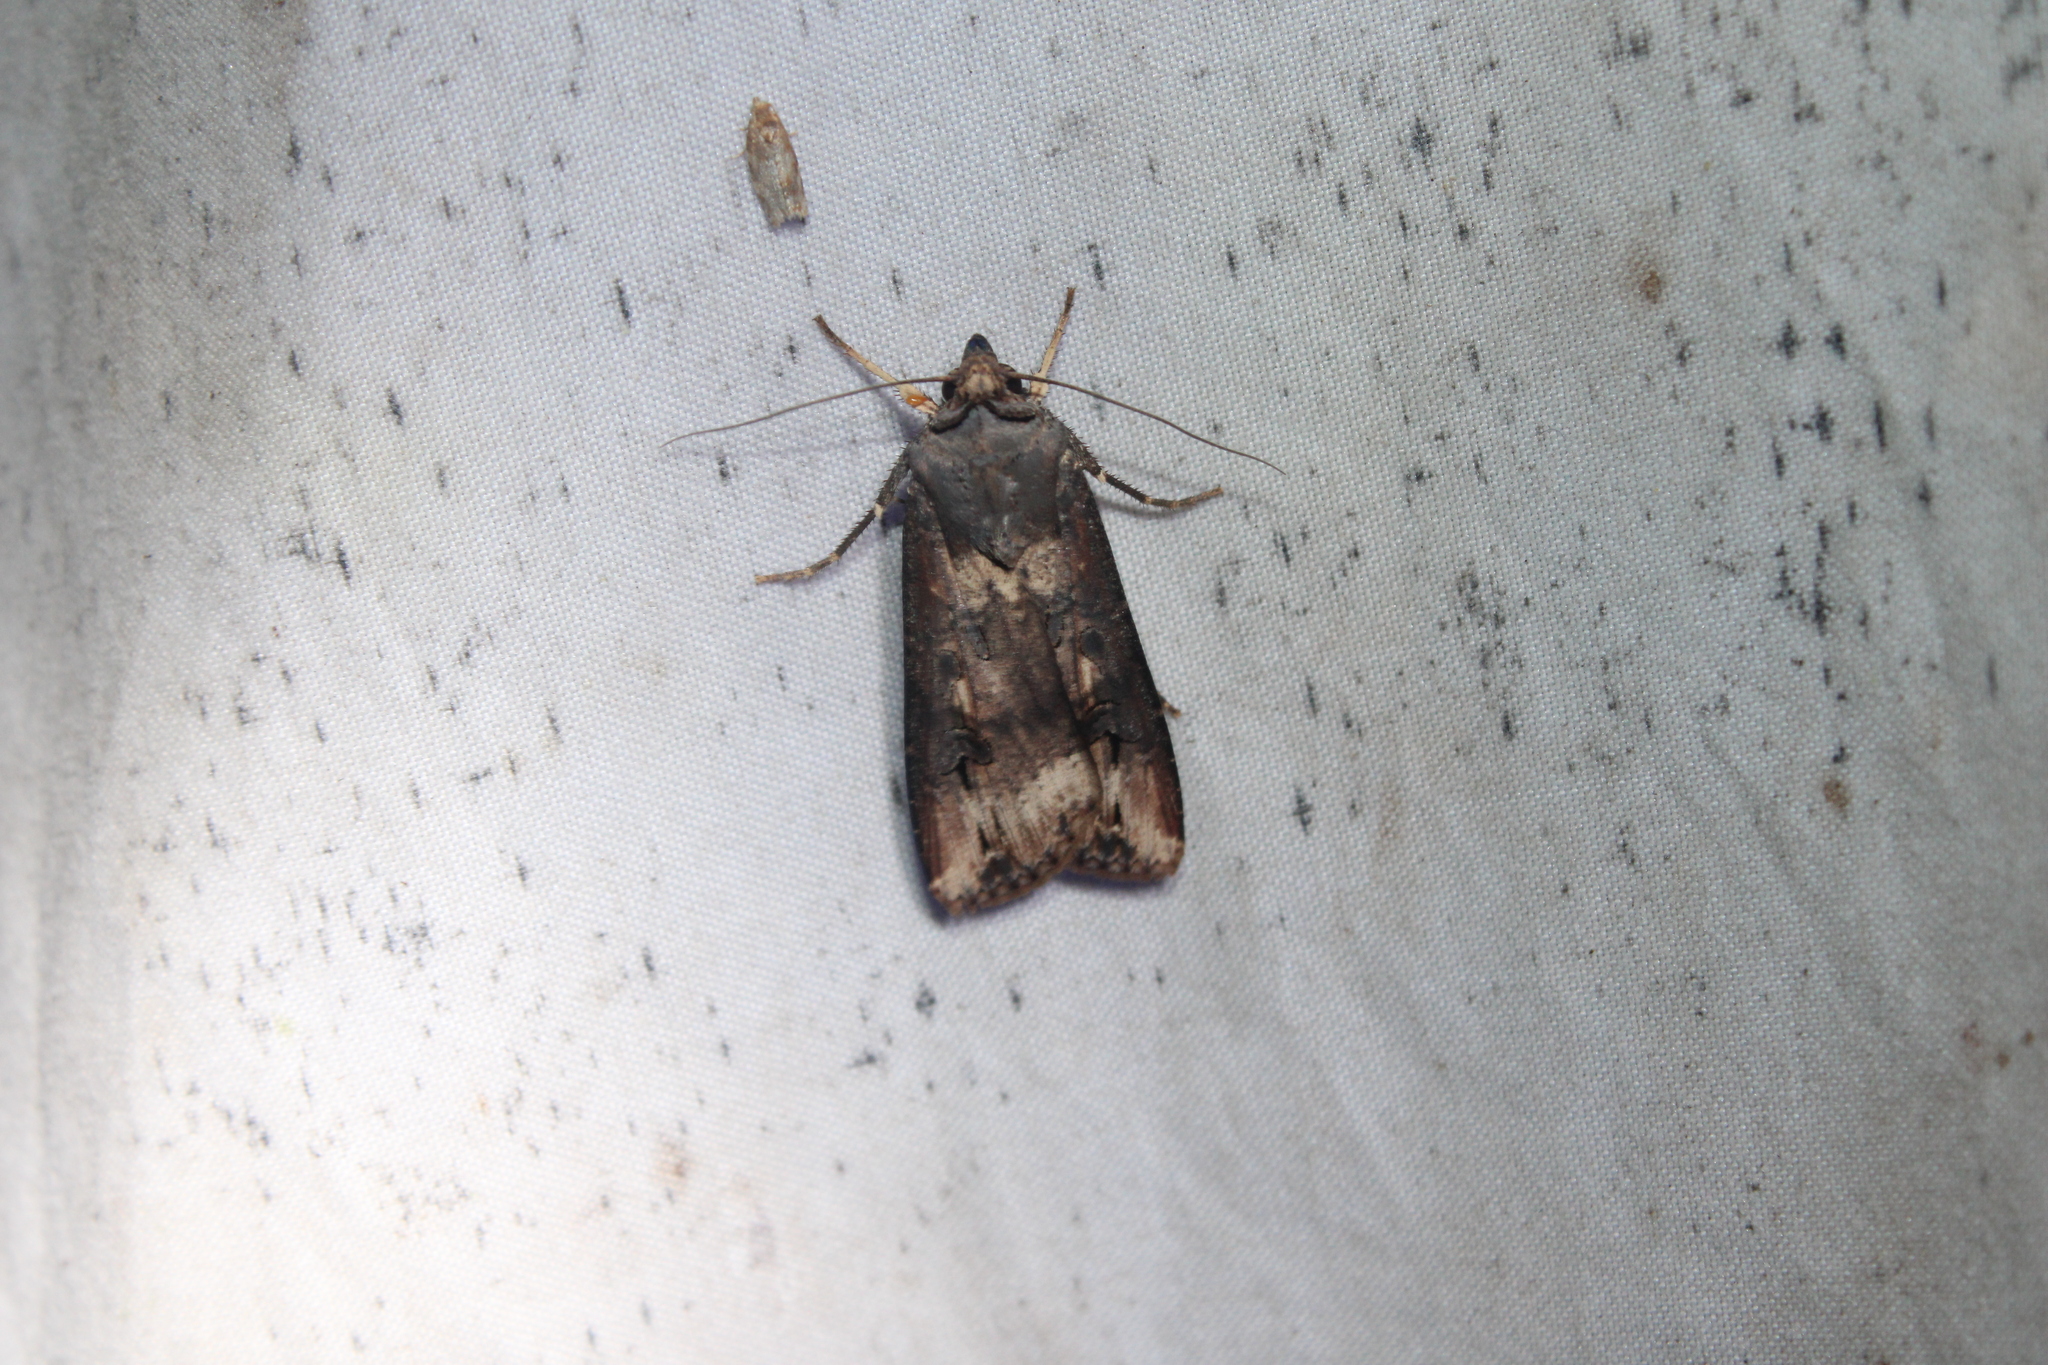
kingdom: Animalia
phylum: Arthropoda
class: Insecta
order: Lepidoptera
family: Noctuidae
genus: Agrotis
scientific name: Agrotis ipsilon
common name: Dark sword-grass
